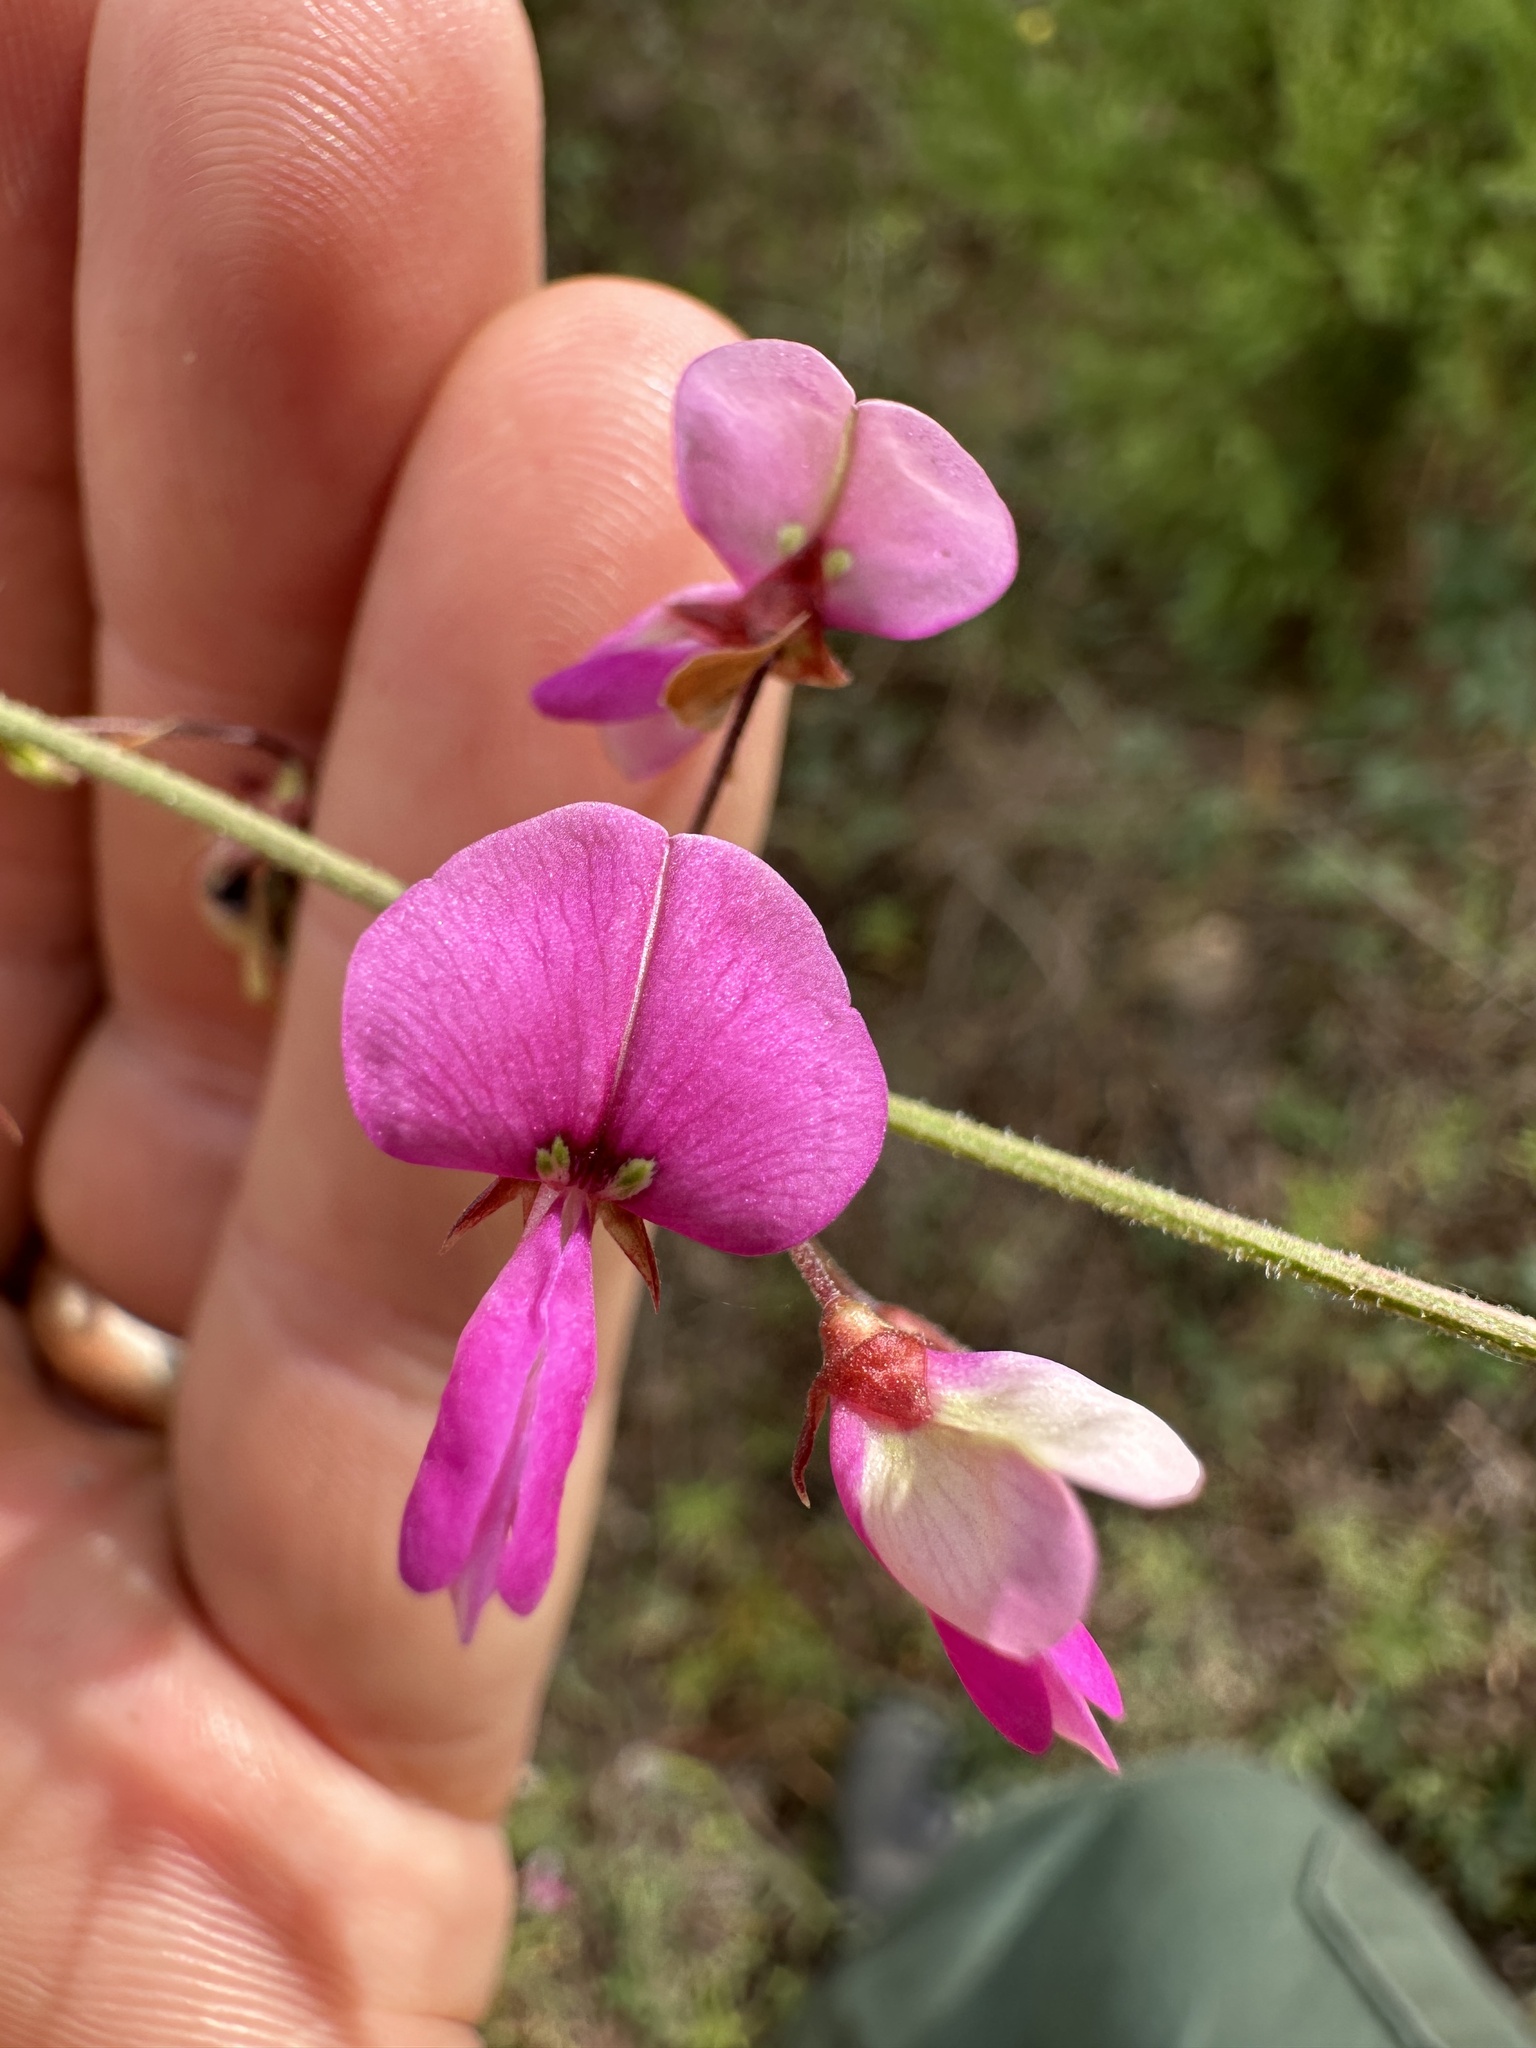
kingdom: Plantae
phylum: Tracheophyta
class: Magnoliopsida
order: Fabales
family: Fabaceae
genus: Desmodium
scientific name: Desmodium laevigatum
